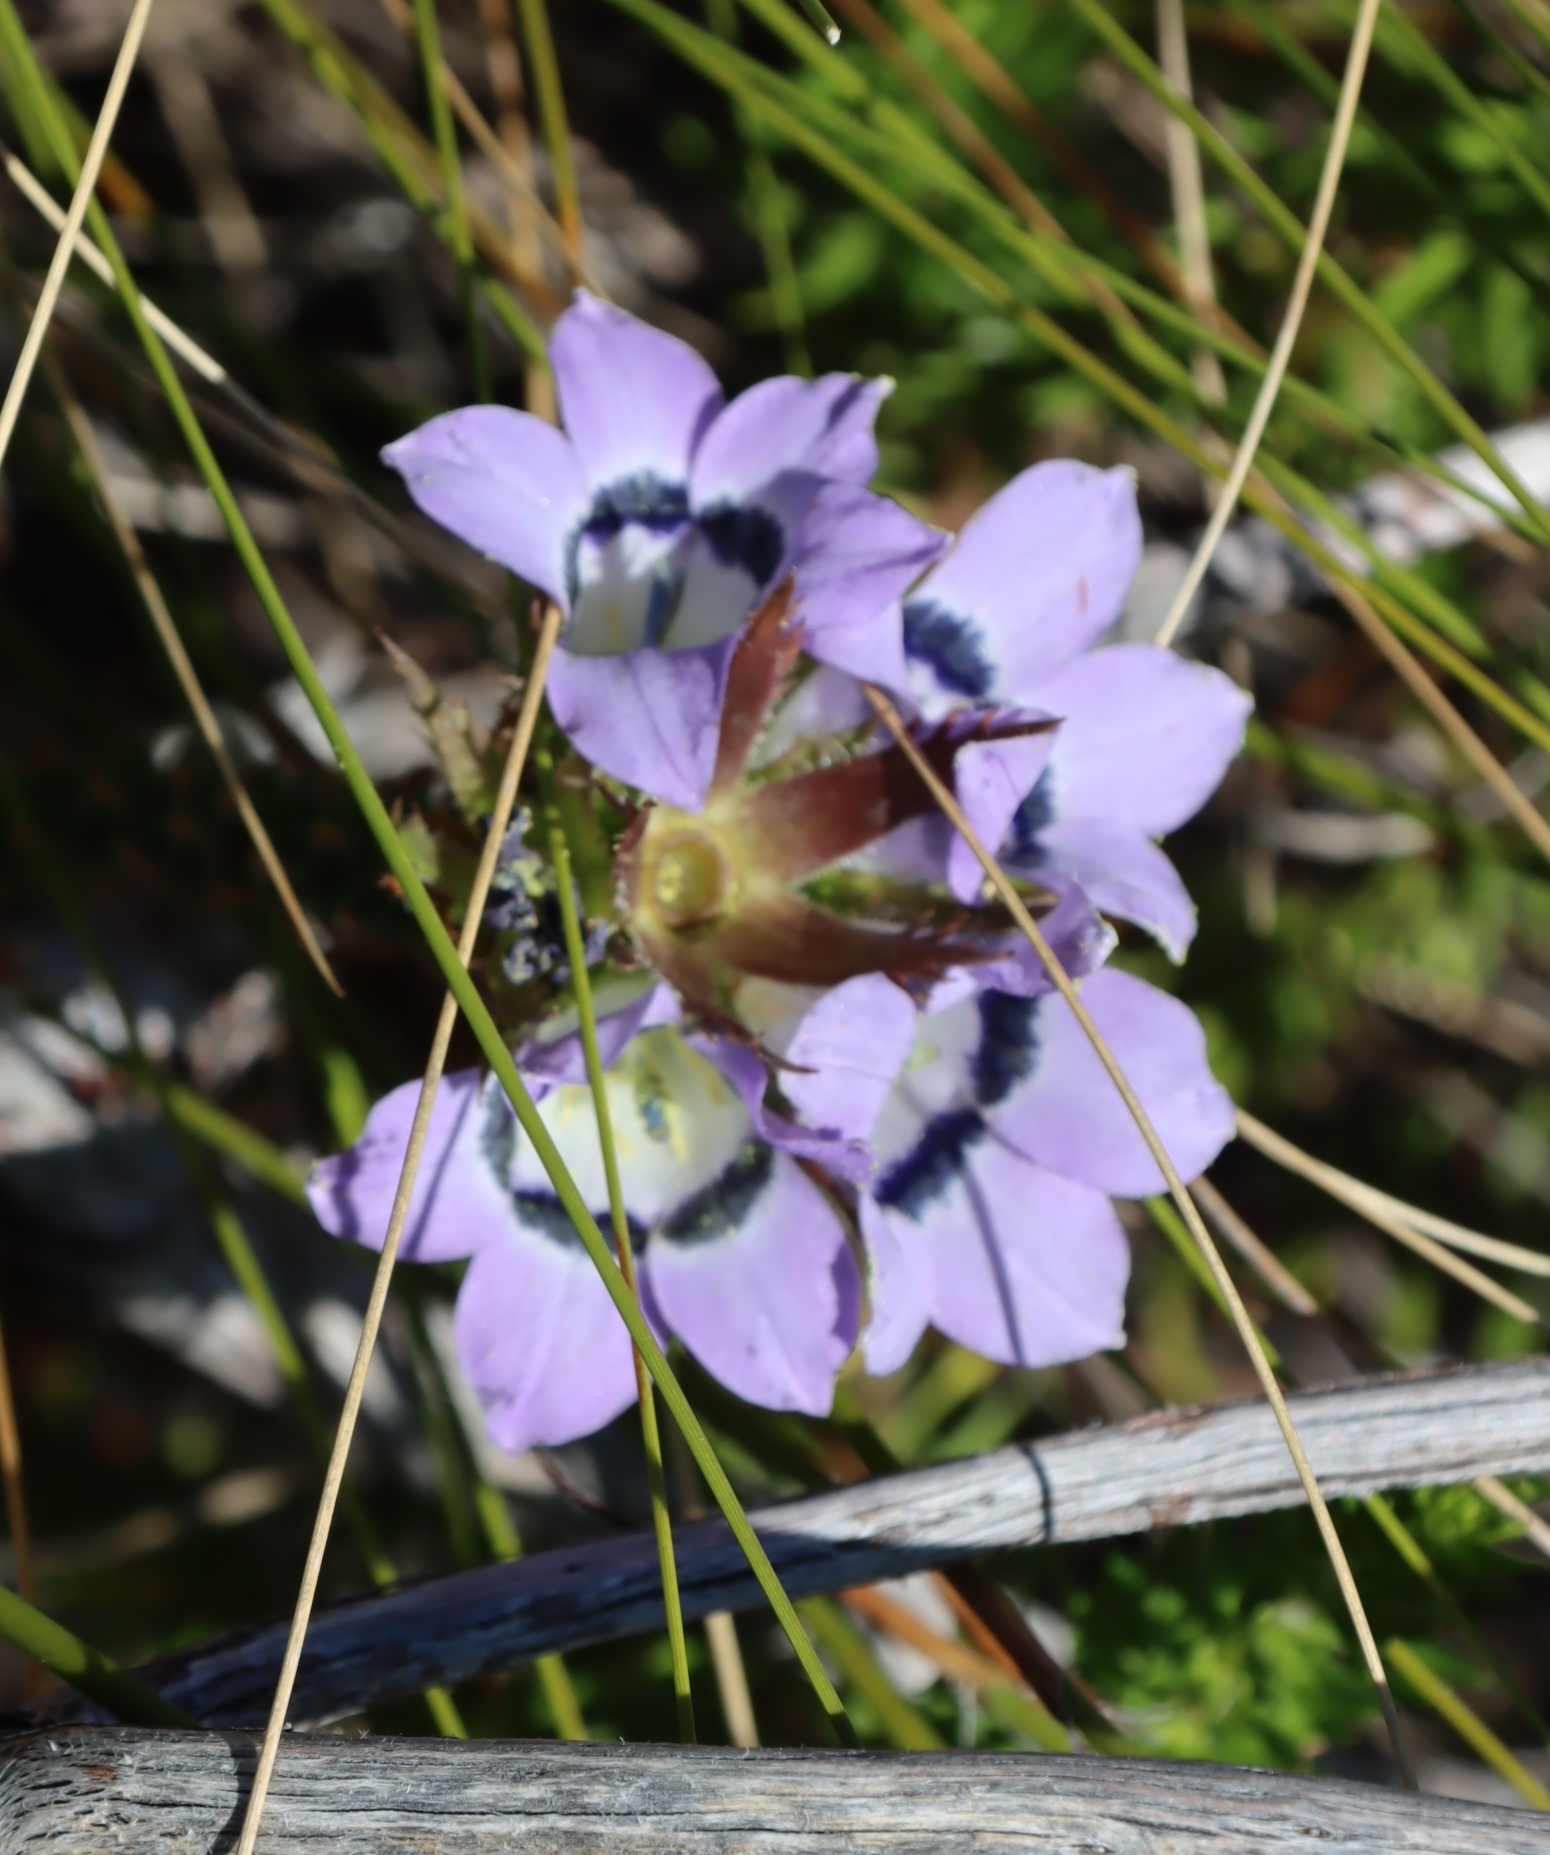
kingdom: Plantae
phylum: Tracheophyta
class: Magnoliopsida
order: Asterales
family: Campanulaceae
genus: Roella
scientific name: Roella ciliata
